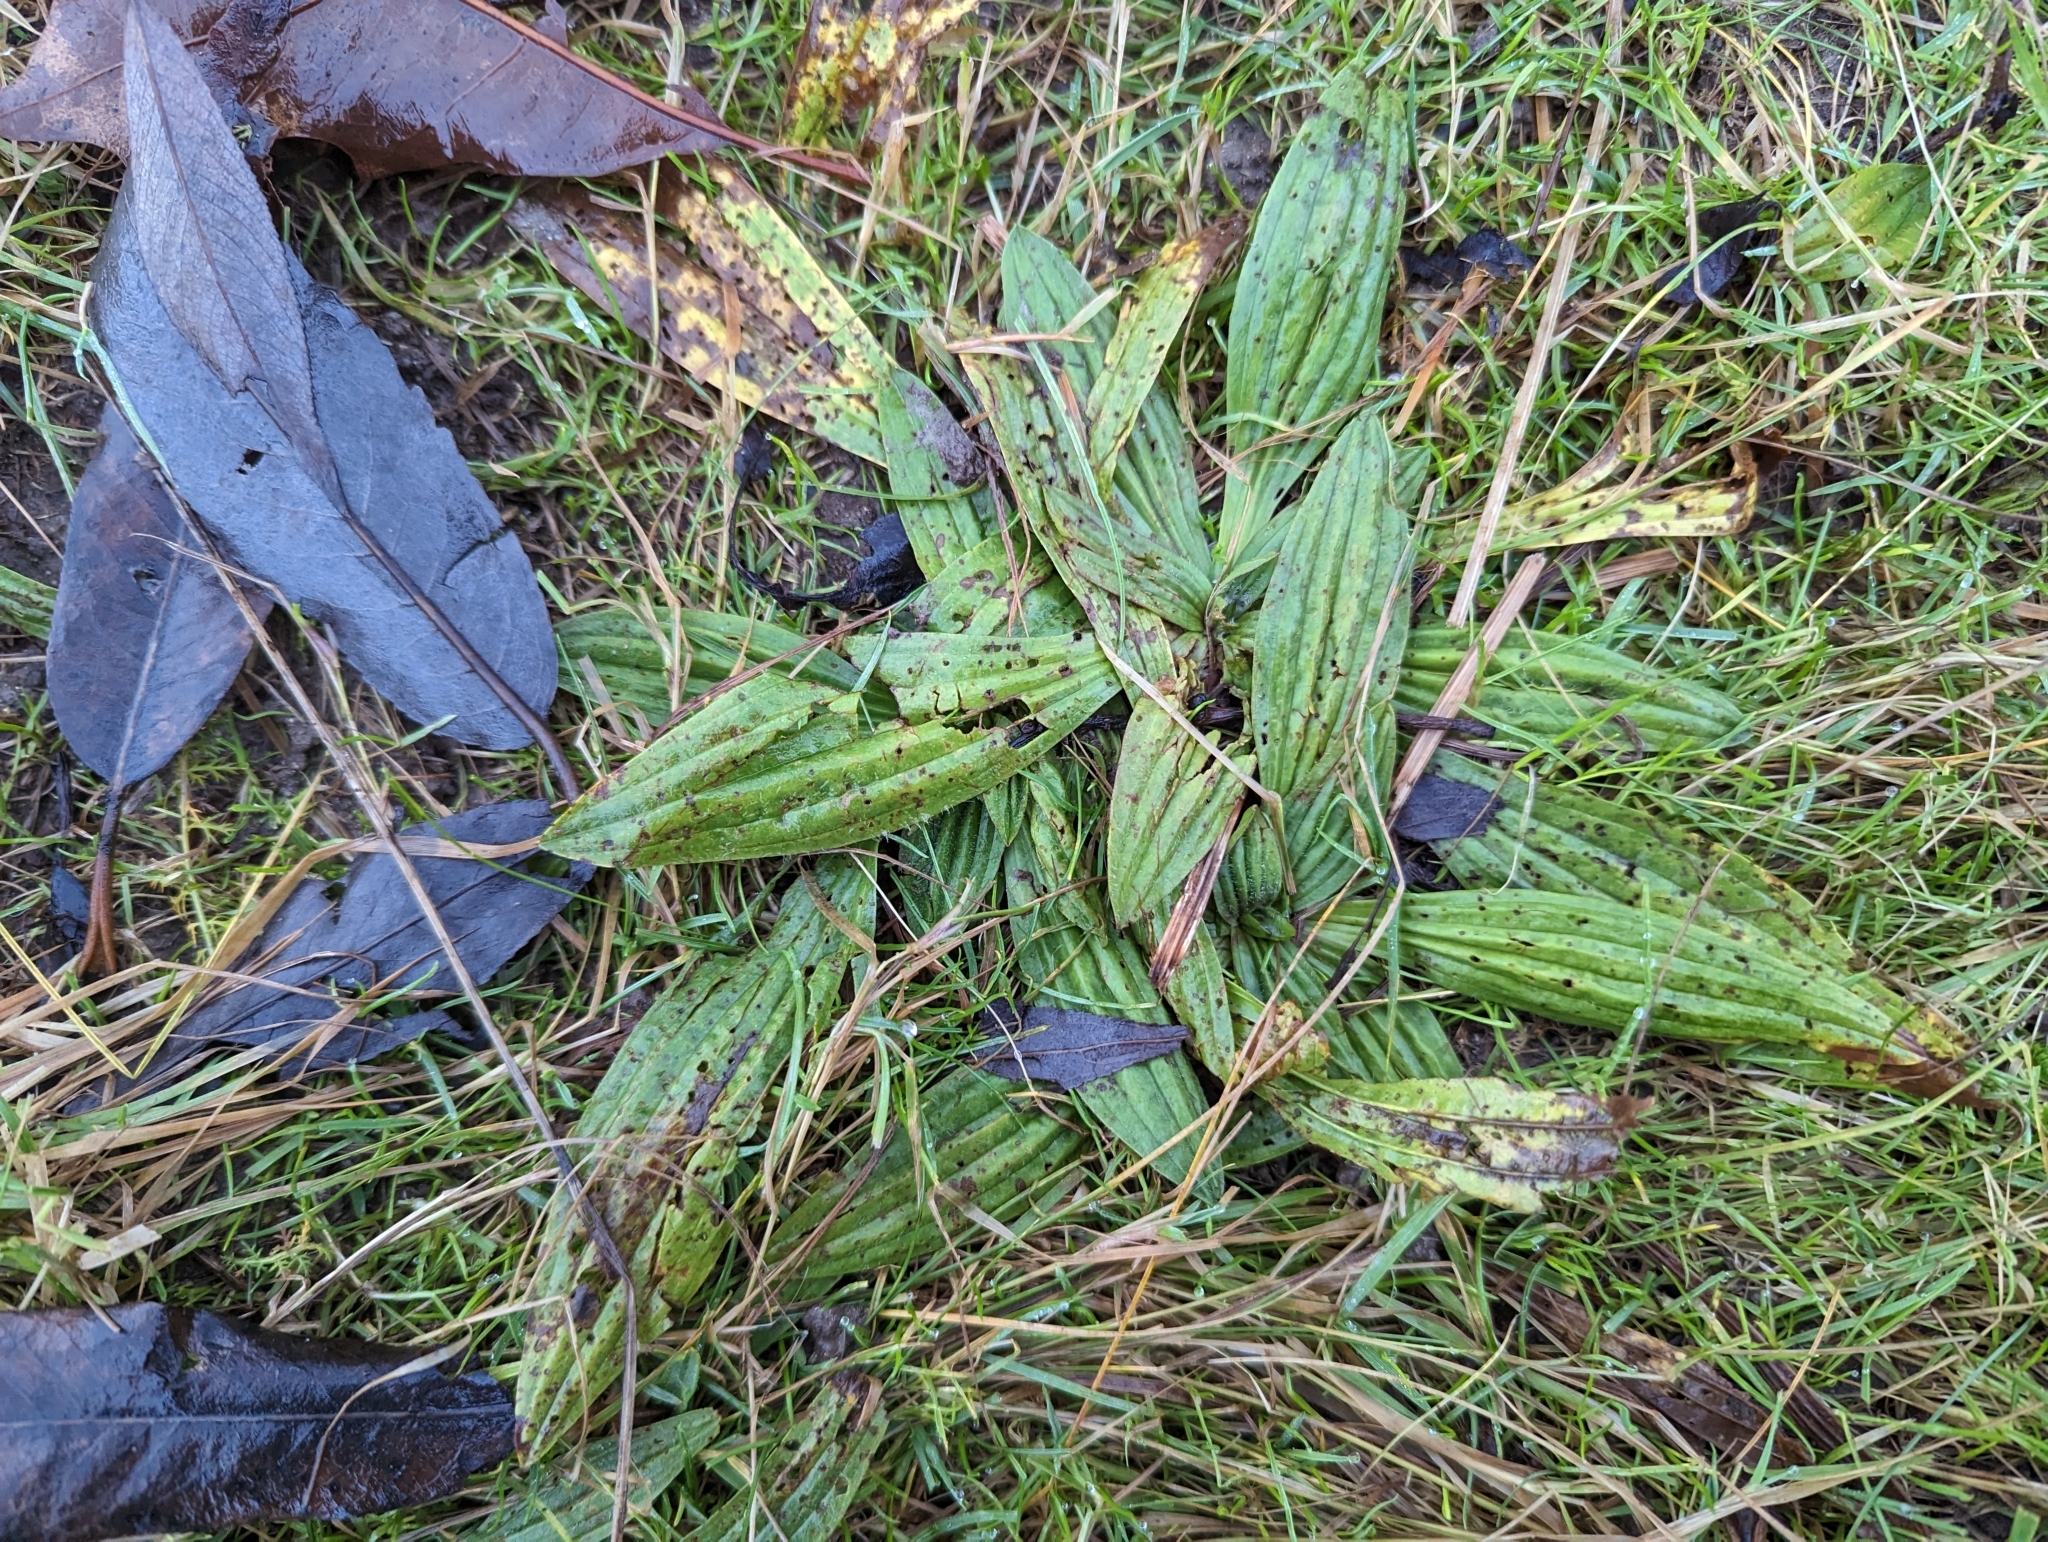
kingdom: Plantae
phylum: Tracheophyta
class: Magnoliopsida
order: Lamiales
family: Plantaginaceae
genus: Plantago
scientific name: Plantago lanceolata
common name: Ribwort plantain
